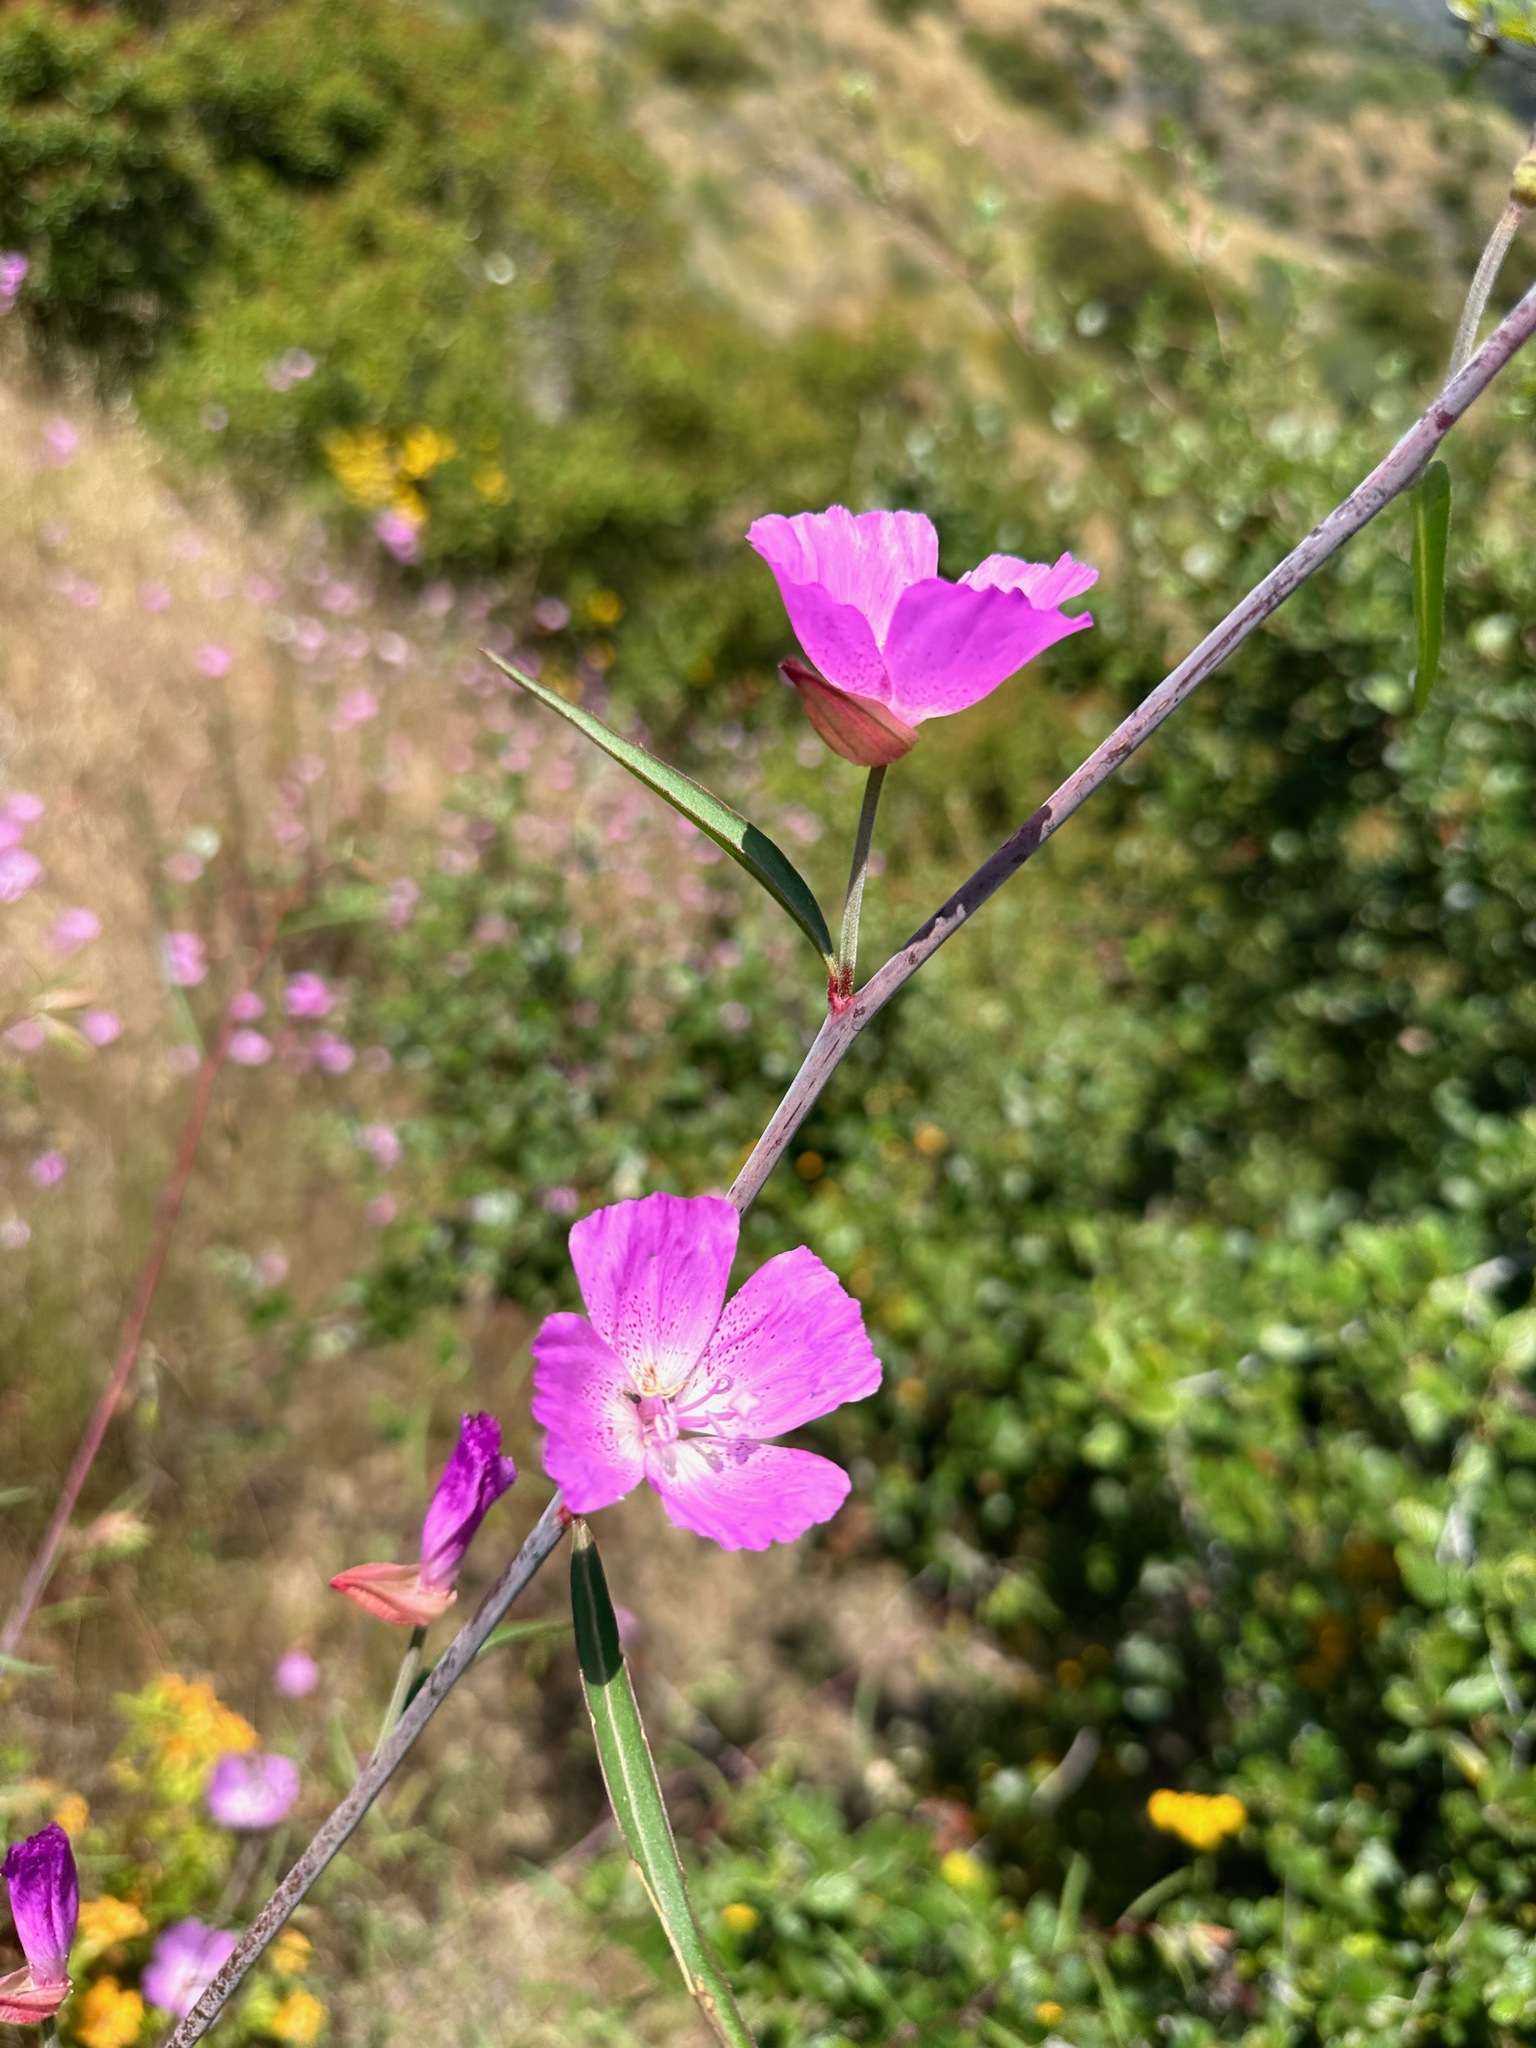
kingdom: Plantae
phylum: Tracheophyta
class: Magnoliopsida
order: Myrtales
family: Onagraceae
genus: Clarkia
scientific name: Clarkia bottae
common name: Punch-bowl godetia
